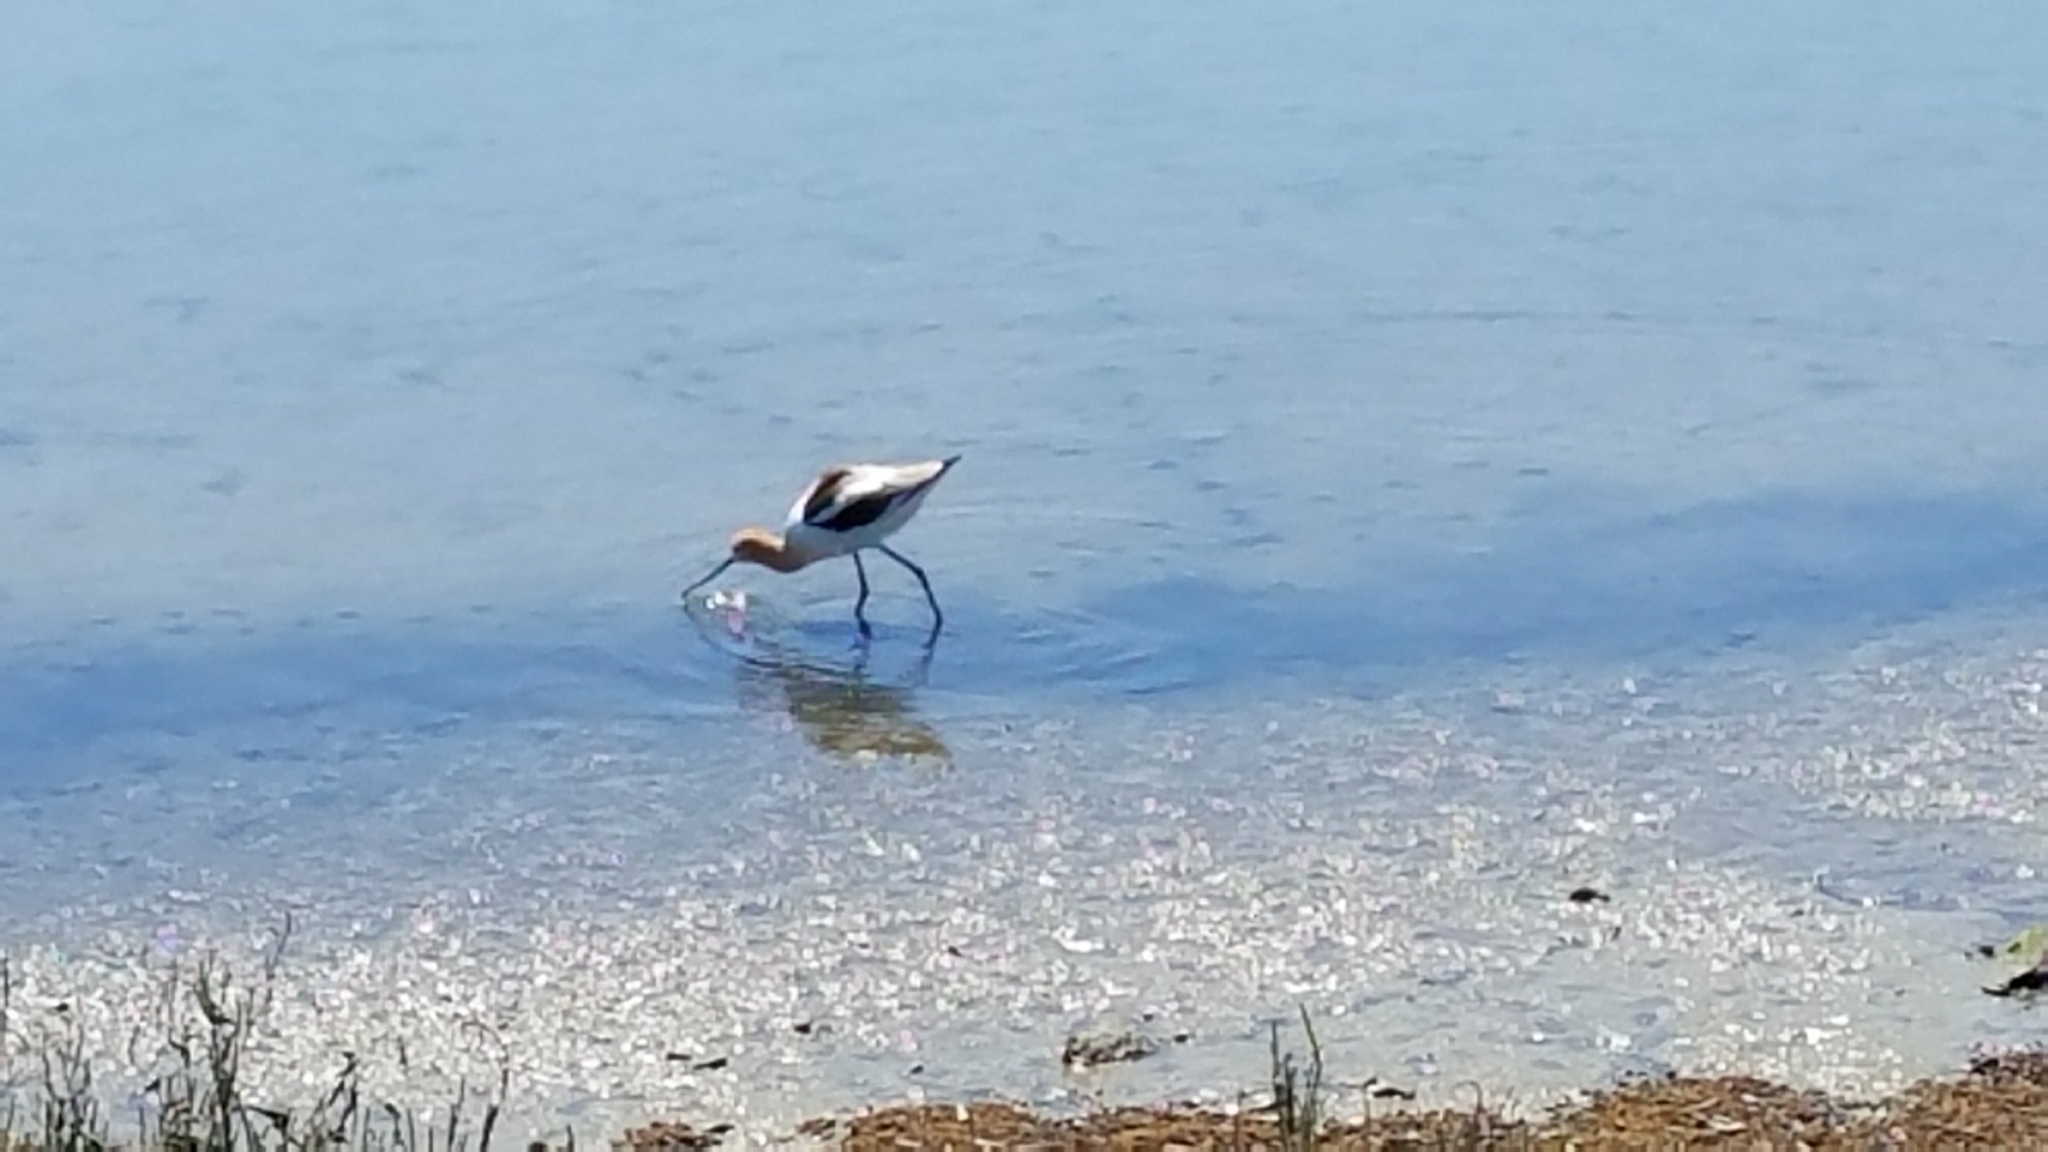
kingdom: Animalia
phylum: Chordata
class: Aves
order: Charadriiformes
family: Recurvirostridae
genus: Recurvirostra
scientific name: Recurvirostra americana
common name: American avocet
